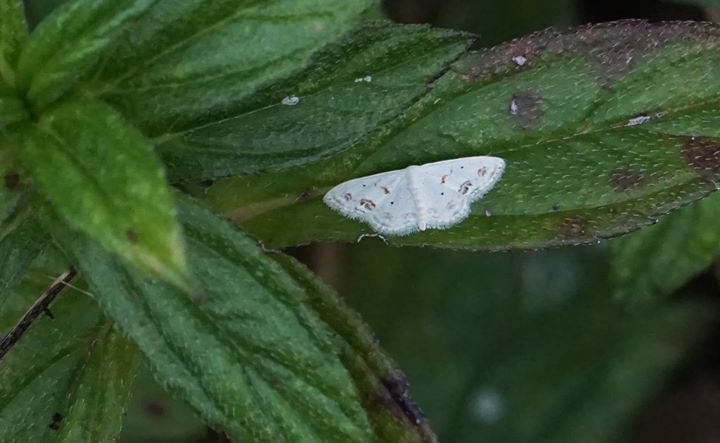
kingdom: Animalia
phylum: Arthropoda
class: Insecta
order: Lepidoptera
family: Geometridae
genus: Scopula
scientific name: Scopula lautaria
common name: Small frosted wave moth
